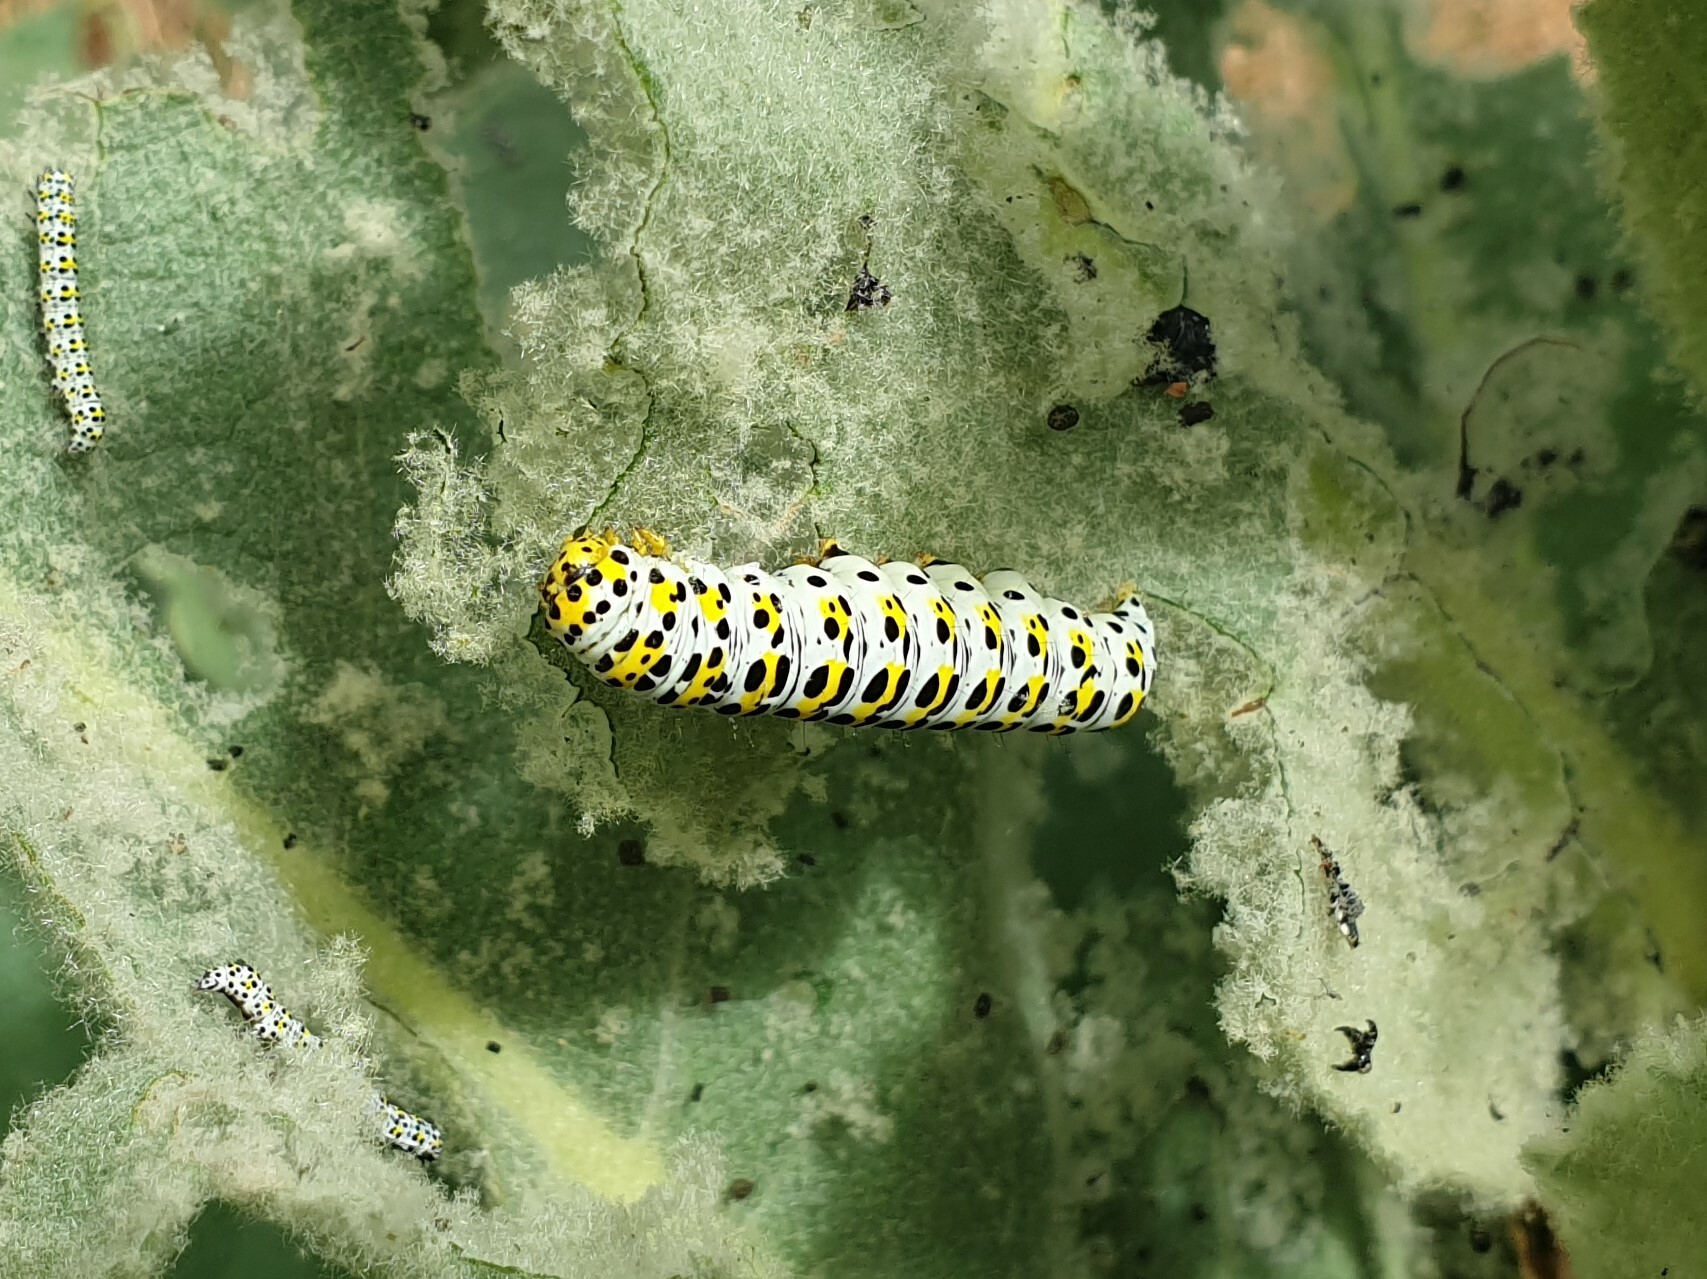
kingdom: Animalia
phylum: Arthropoda
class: Insecta
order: Lepidoptera
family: Noctuidae
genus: Cucullia
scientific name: Cucullia verbasci
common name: Mullein
